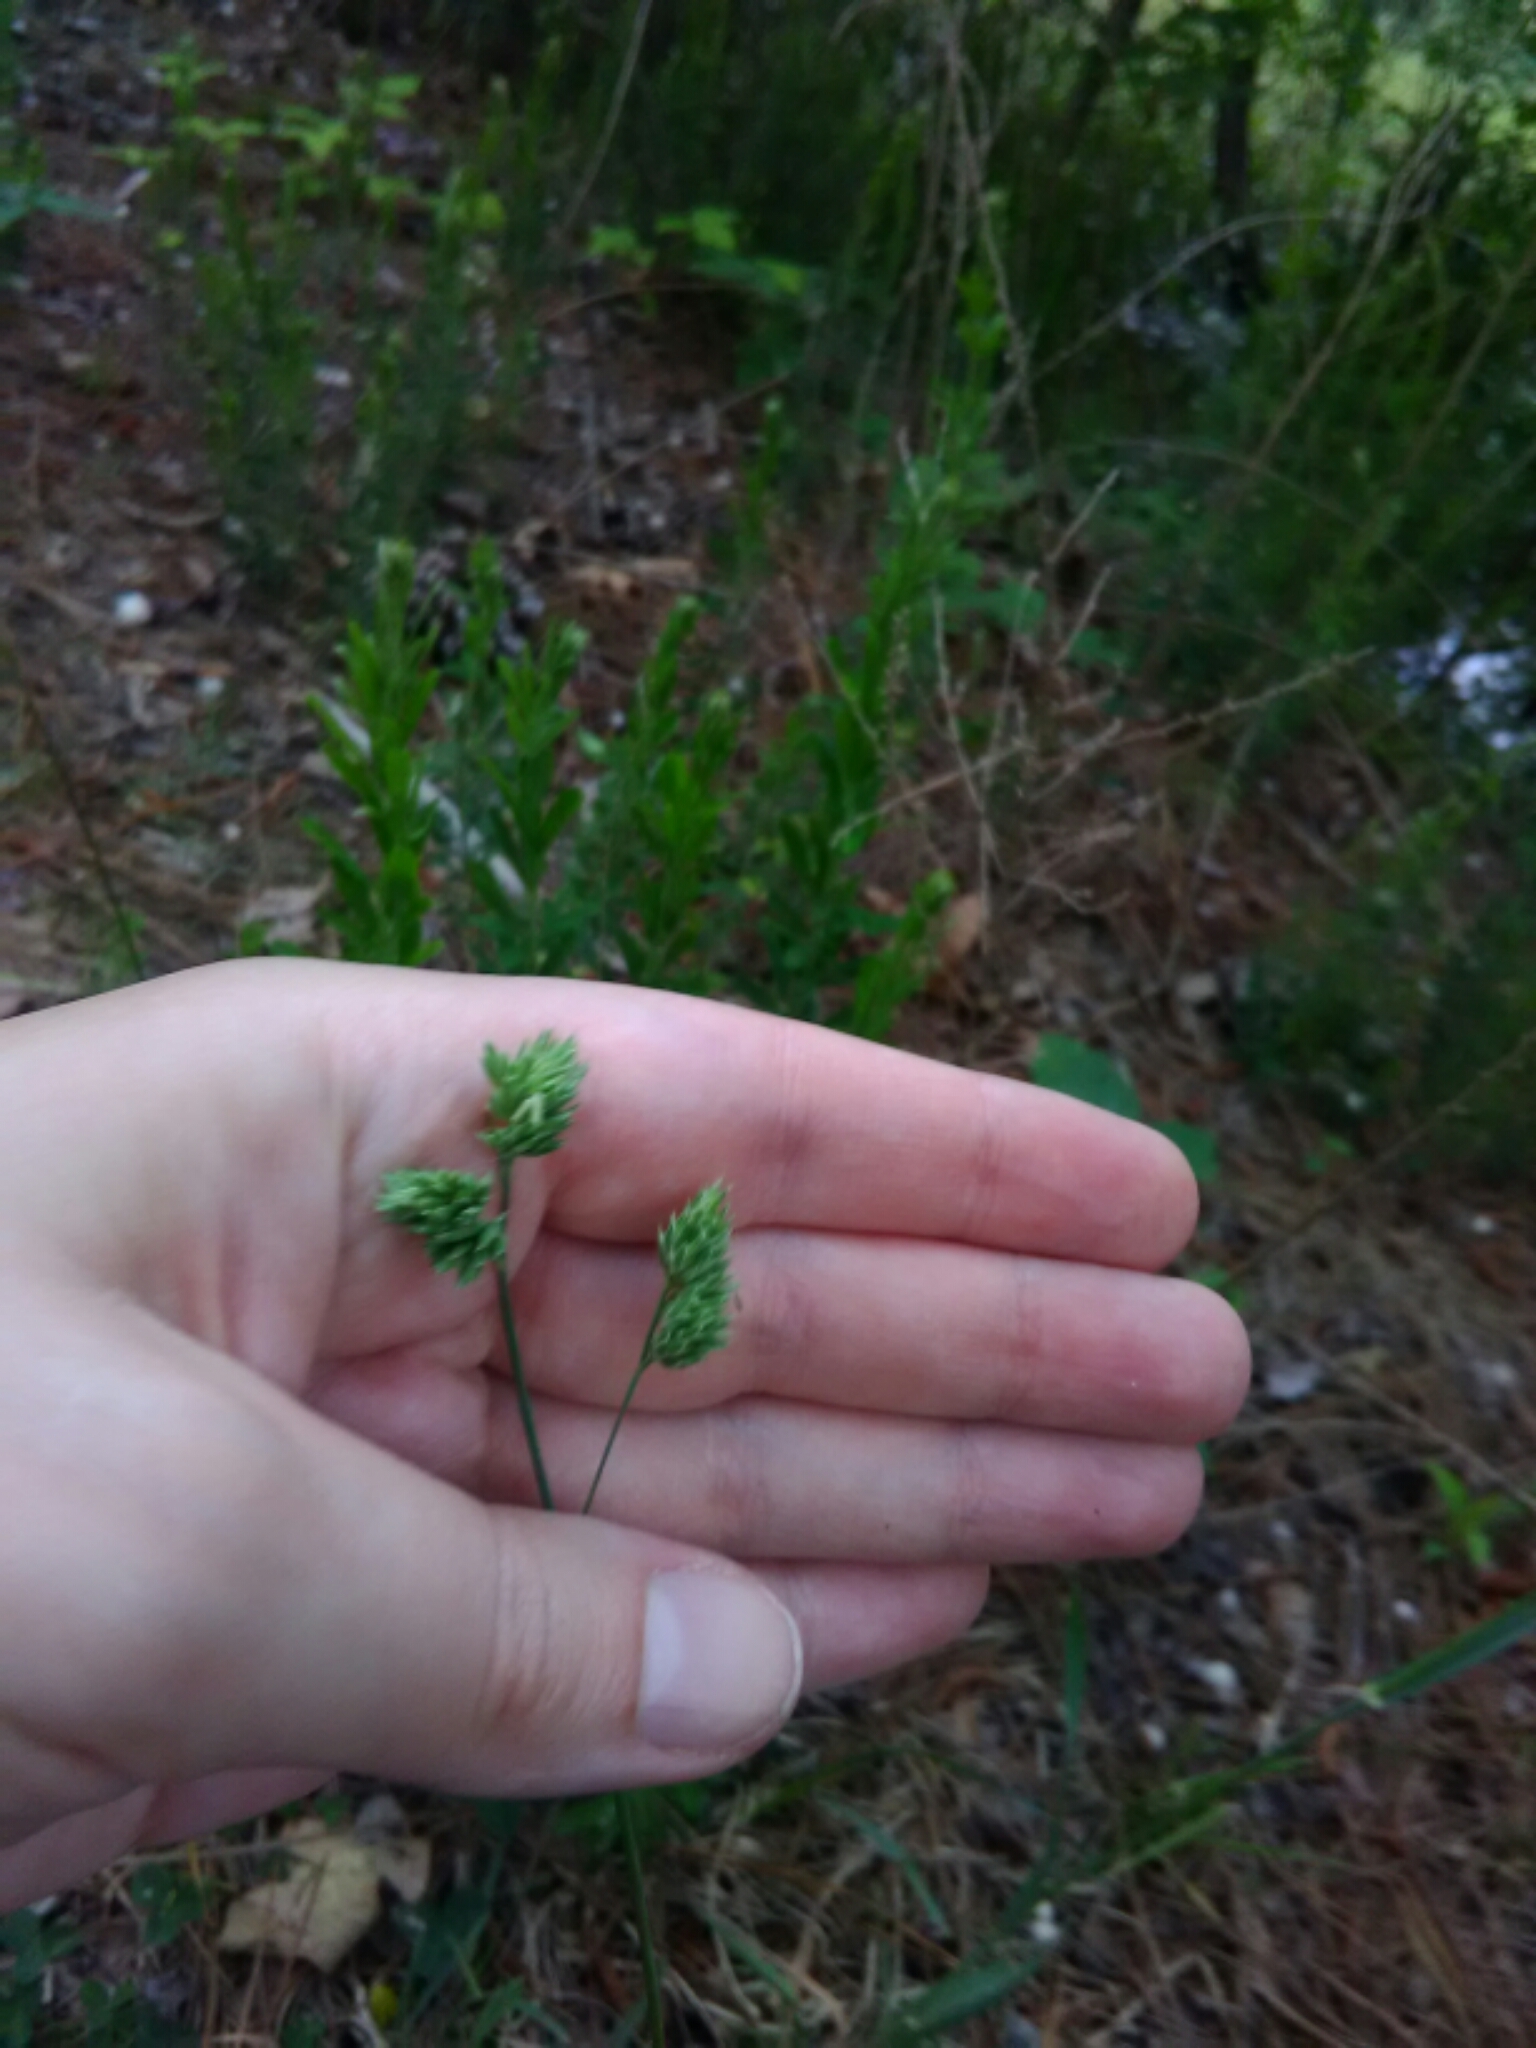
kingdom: Plantae
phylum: Tracheophyta
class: Liliopsida
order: Poales
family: Poaceae
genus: Dactylis
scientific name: Dactylis glomerata
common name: Orchardgrass
